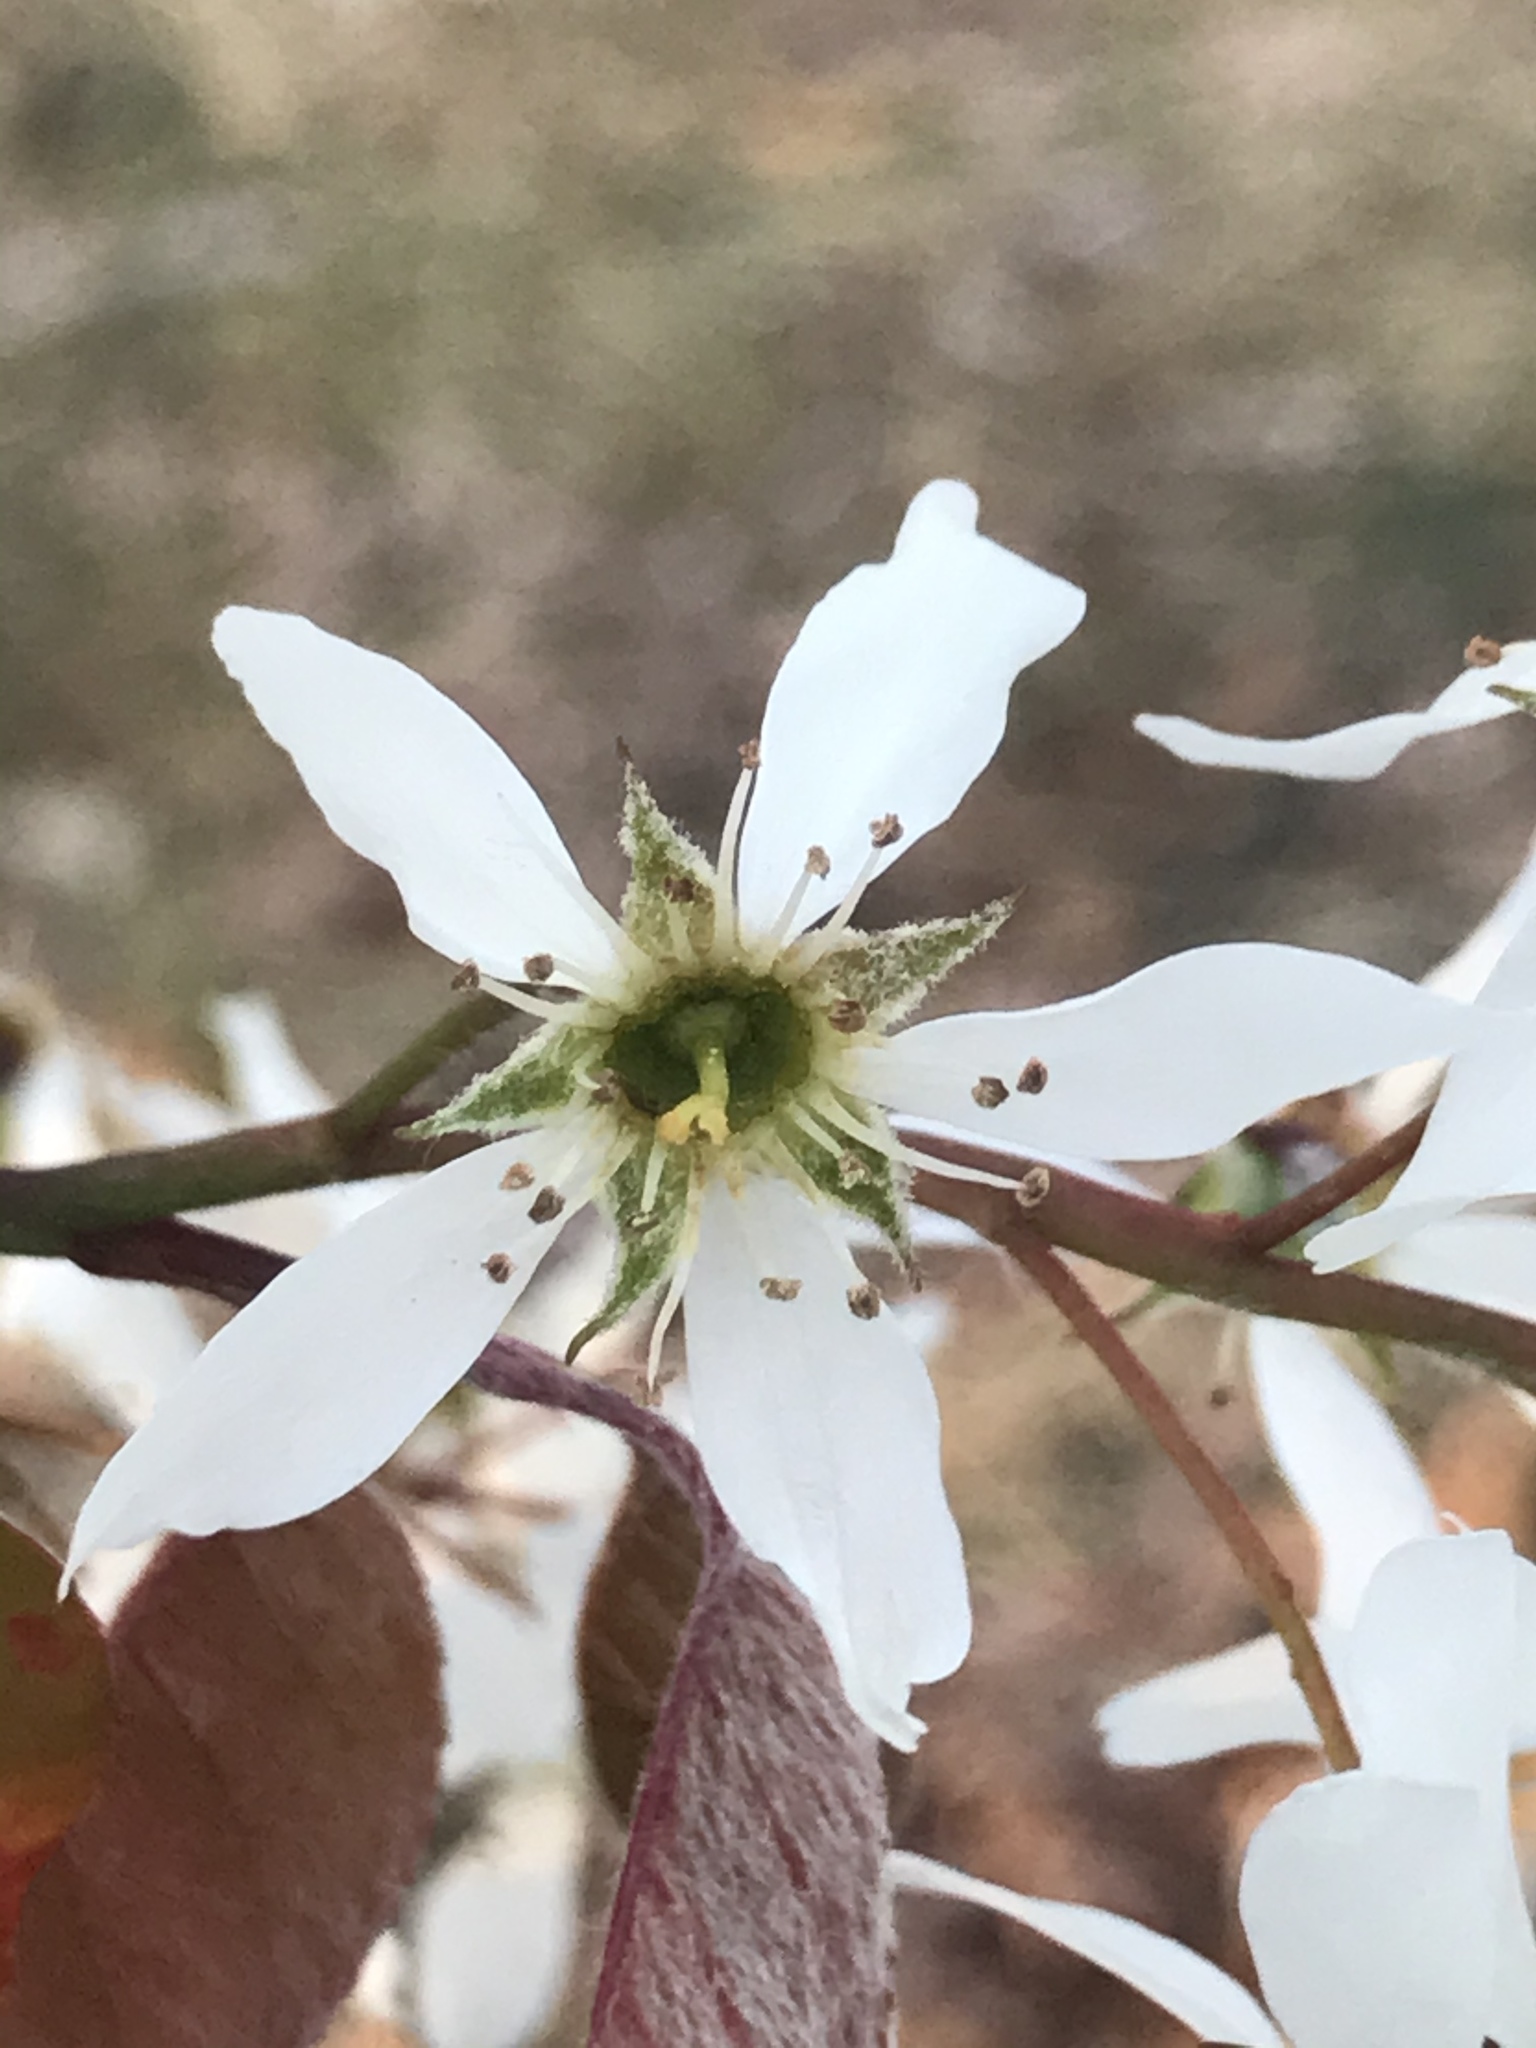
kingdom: Plantae
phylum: Tracheophyta
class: Magnoliopsida
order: Rosales
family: Rosaceae
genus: Amelanchier
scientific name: Amelanchier arborea
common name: Downy serviceberry
